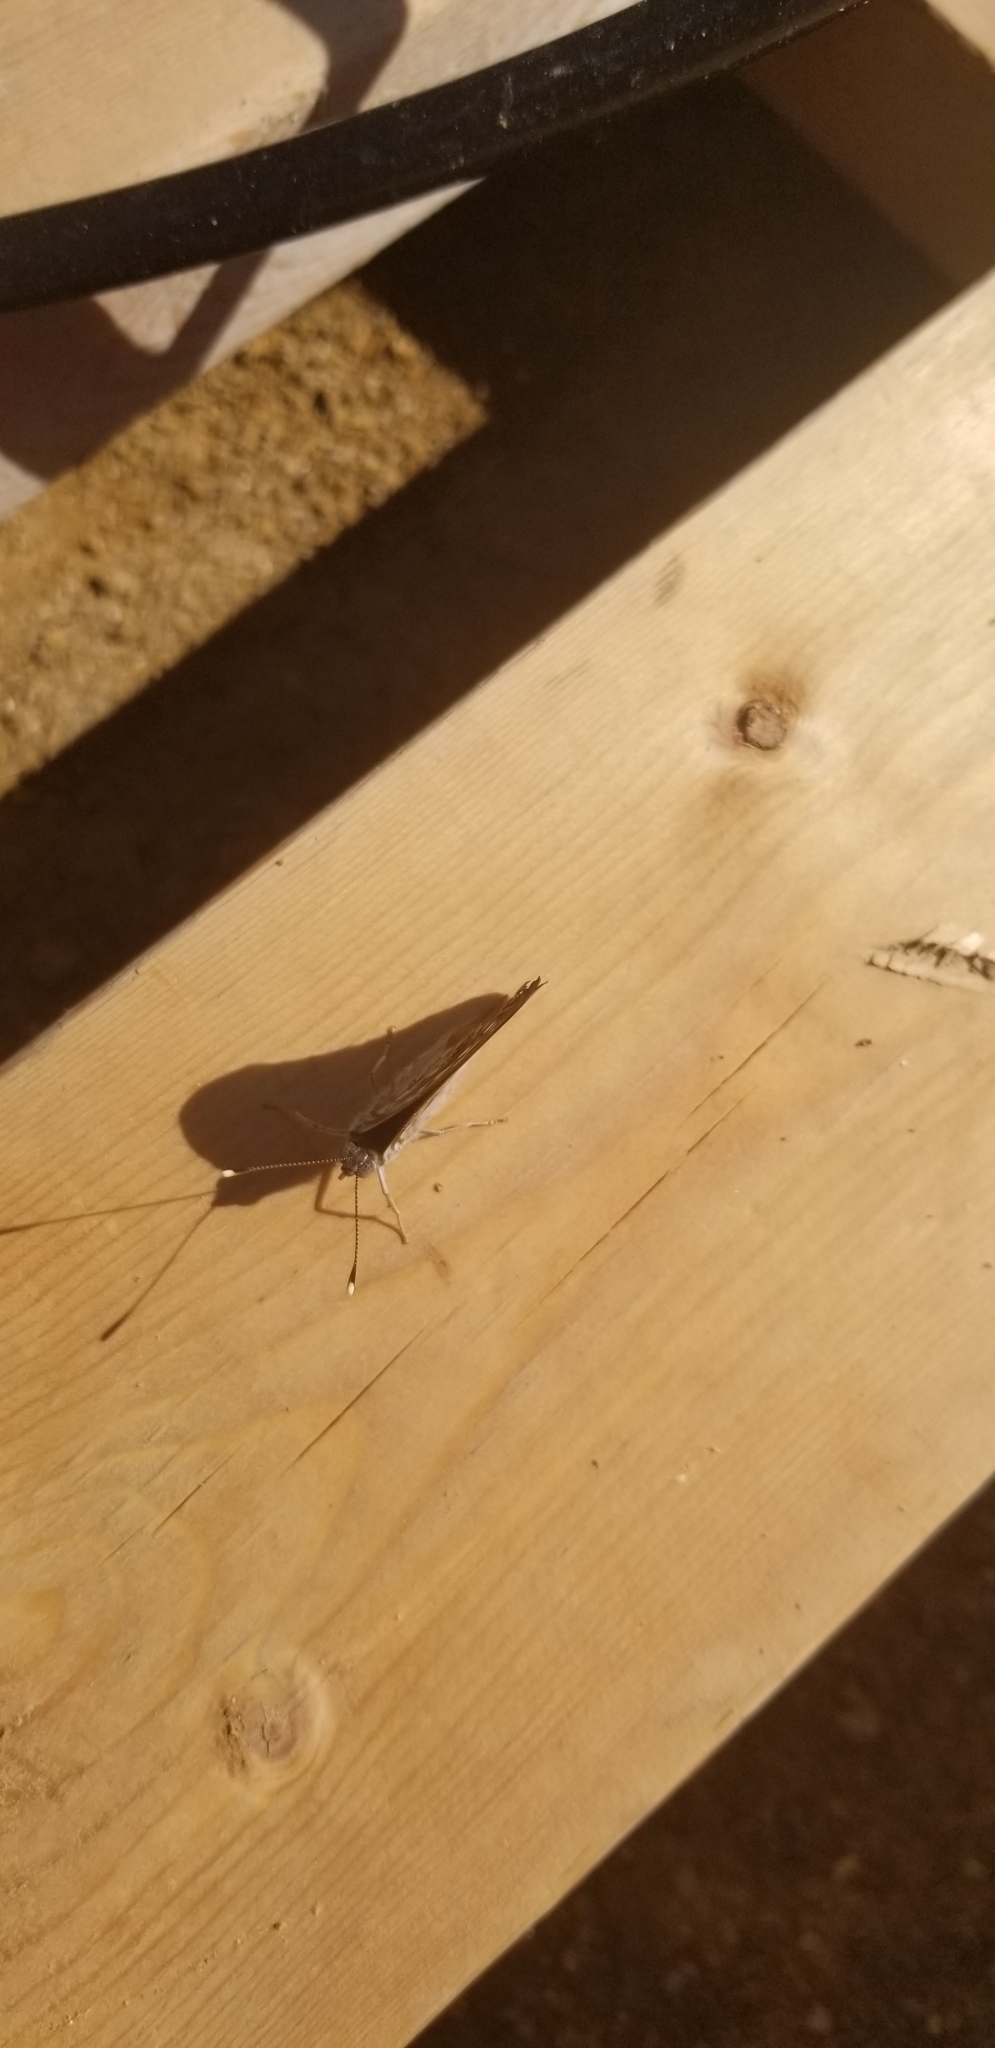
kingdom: Animalia
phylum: Arthropoda
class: Insecta
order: Lepidoptera
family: Nymphalidae
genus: Asterocampa
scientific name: Asterocampa celtis
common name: Hackberry emperor
